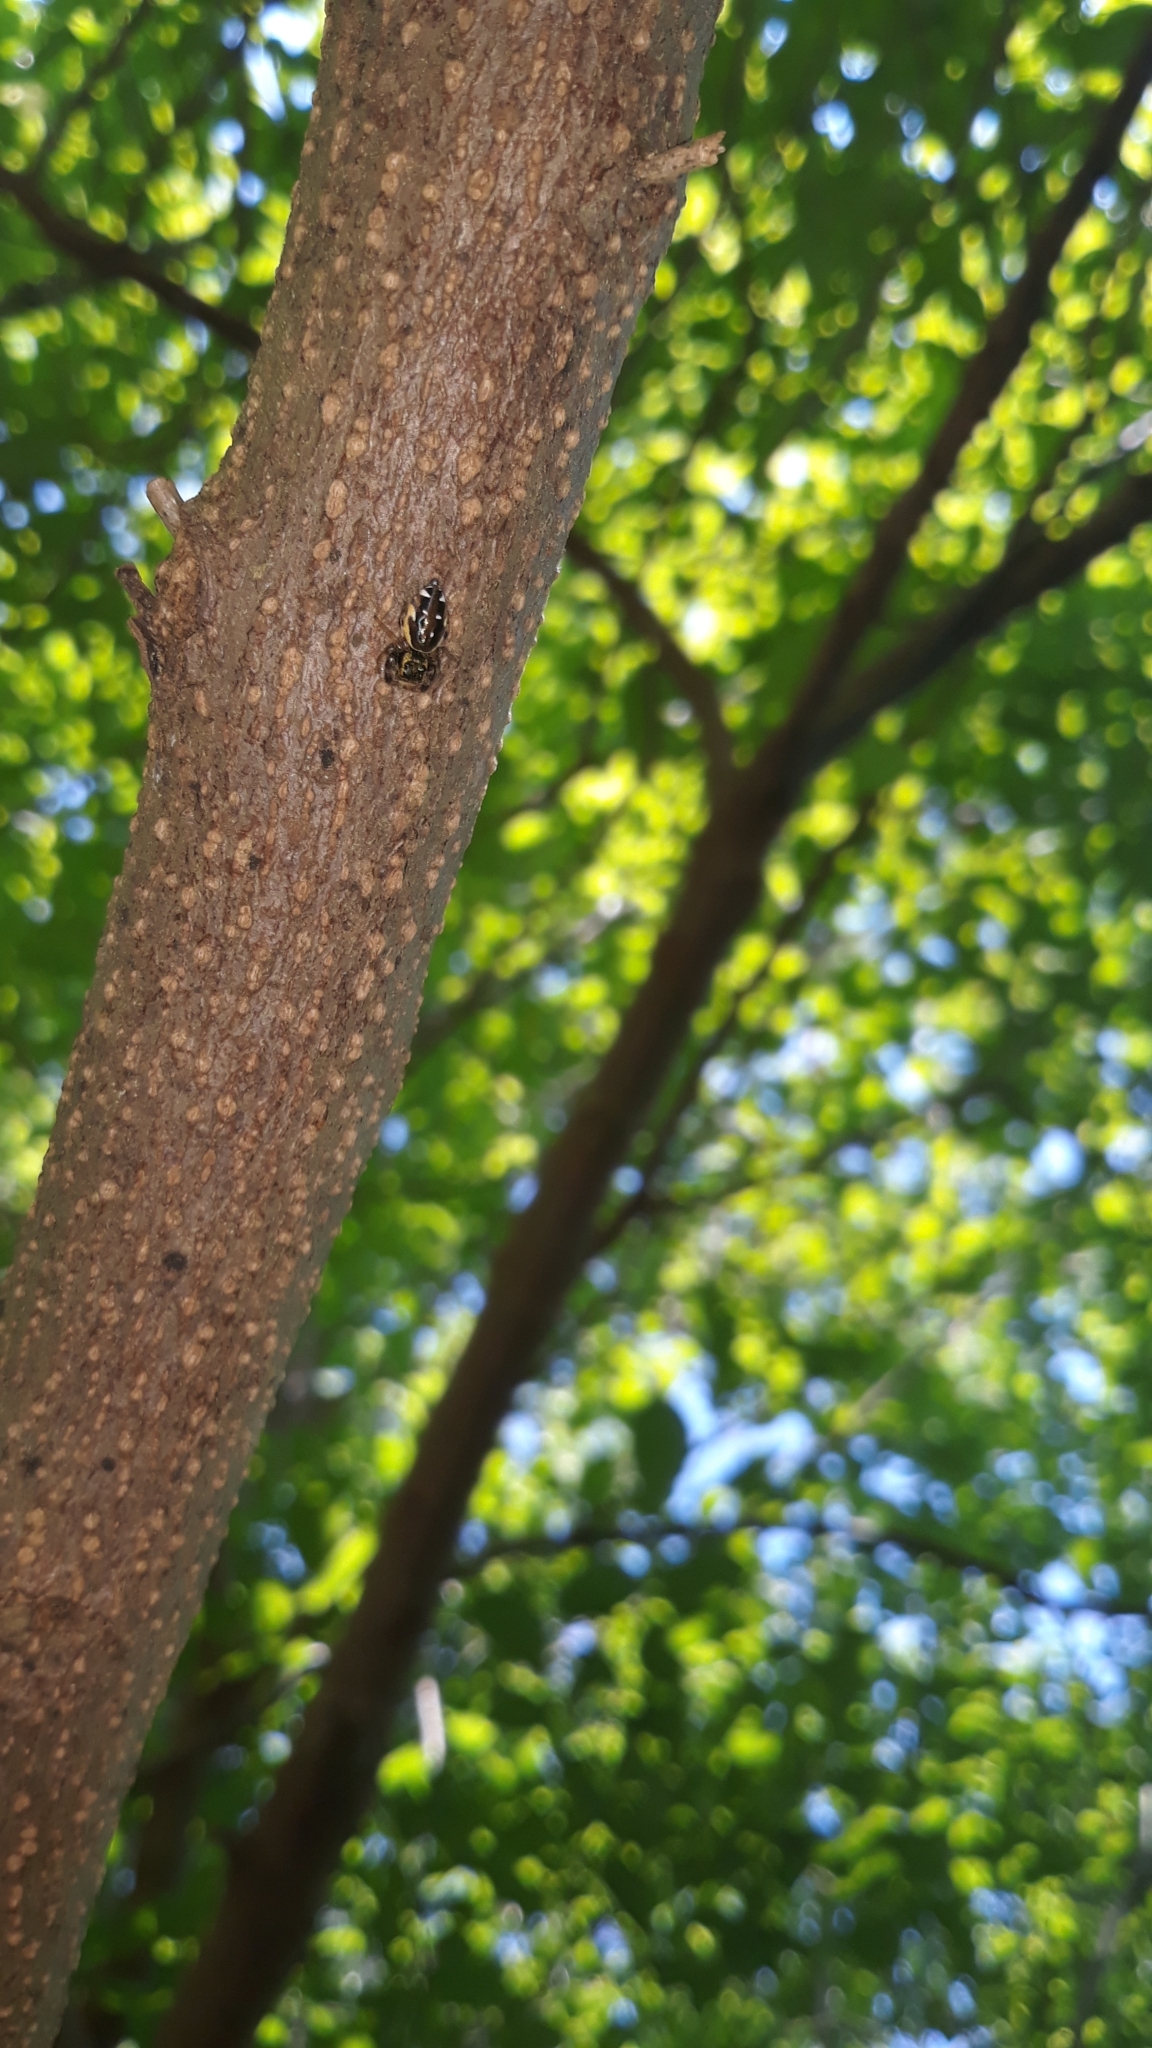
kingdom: Animalia
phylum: Arthropoda
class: Arachnida
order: Araneae
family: Salticidae
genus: Paraphidippus
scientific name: Paraphidippus aurantius
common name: Jumping spiders
